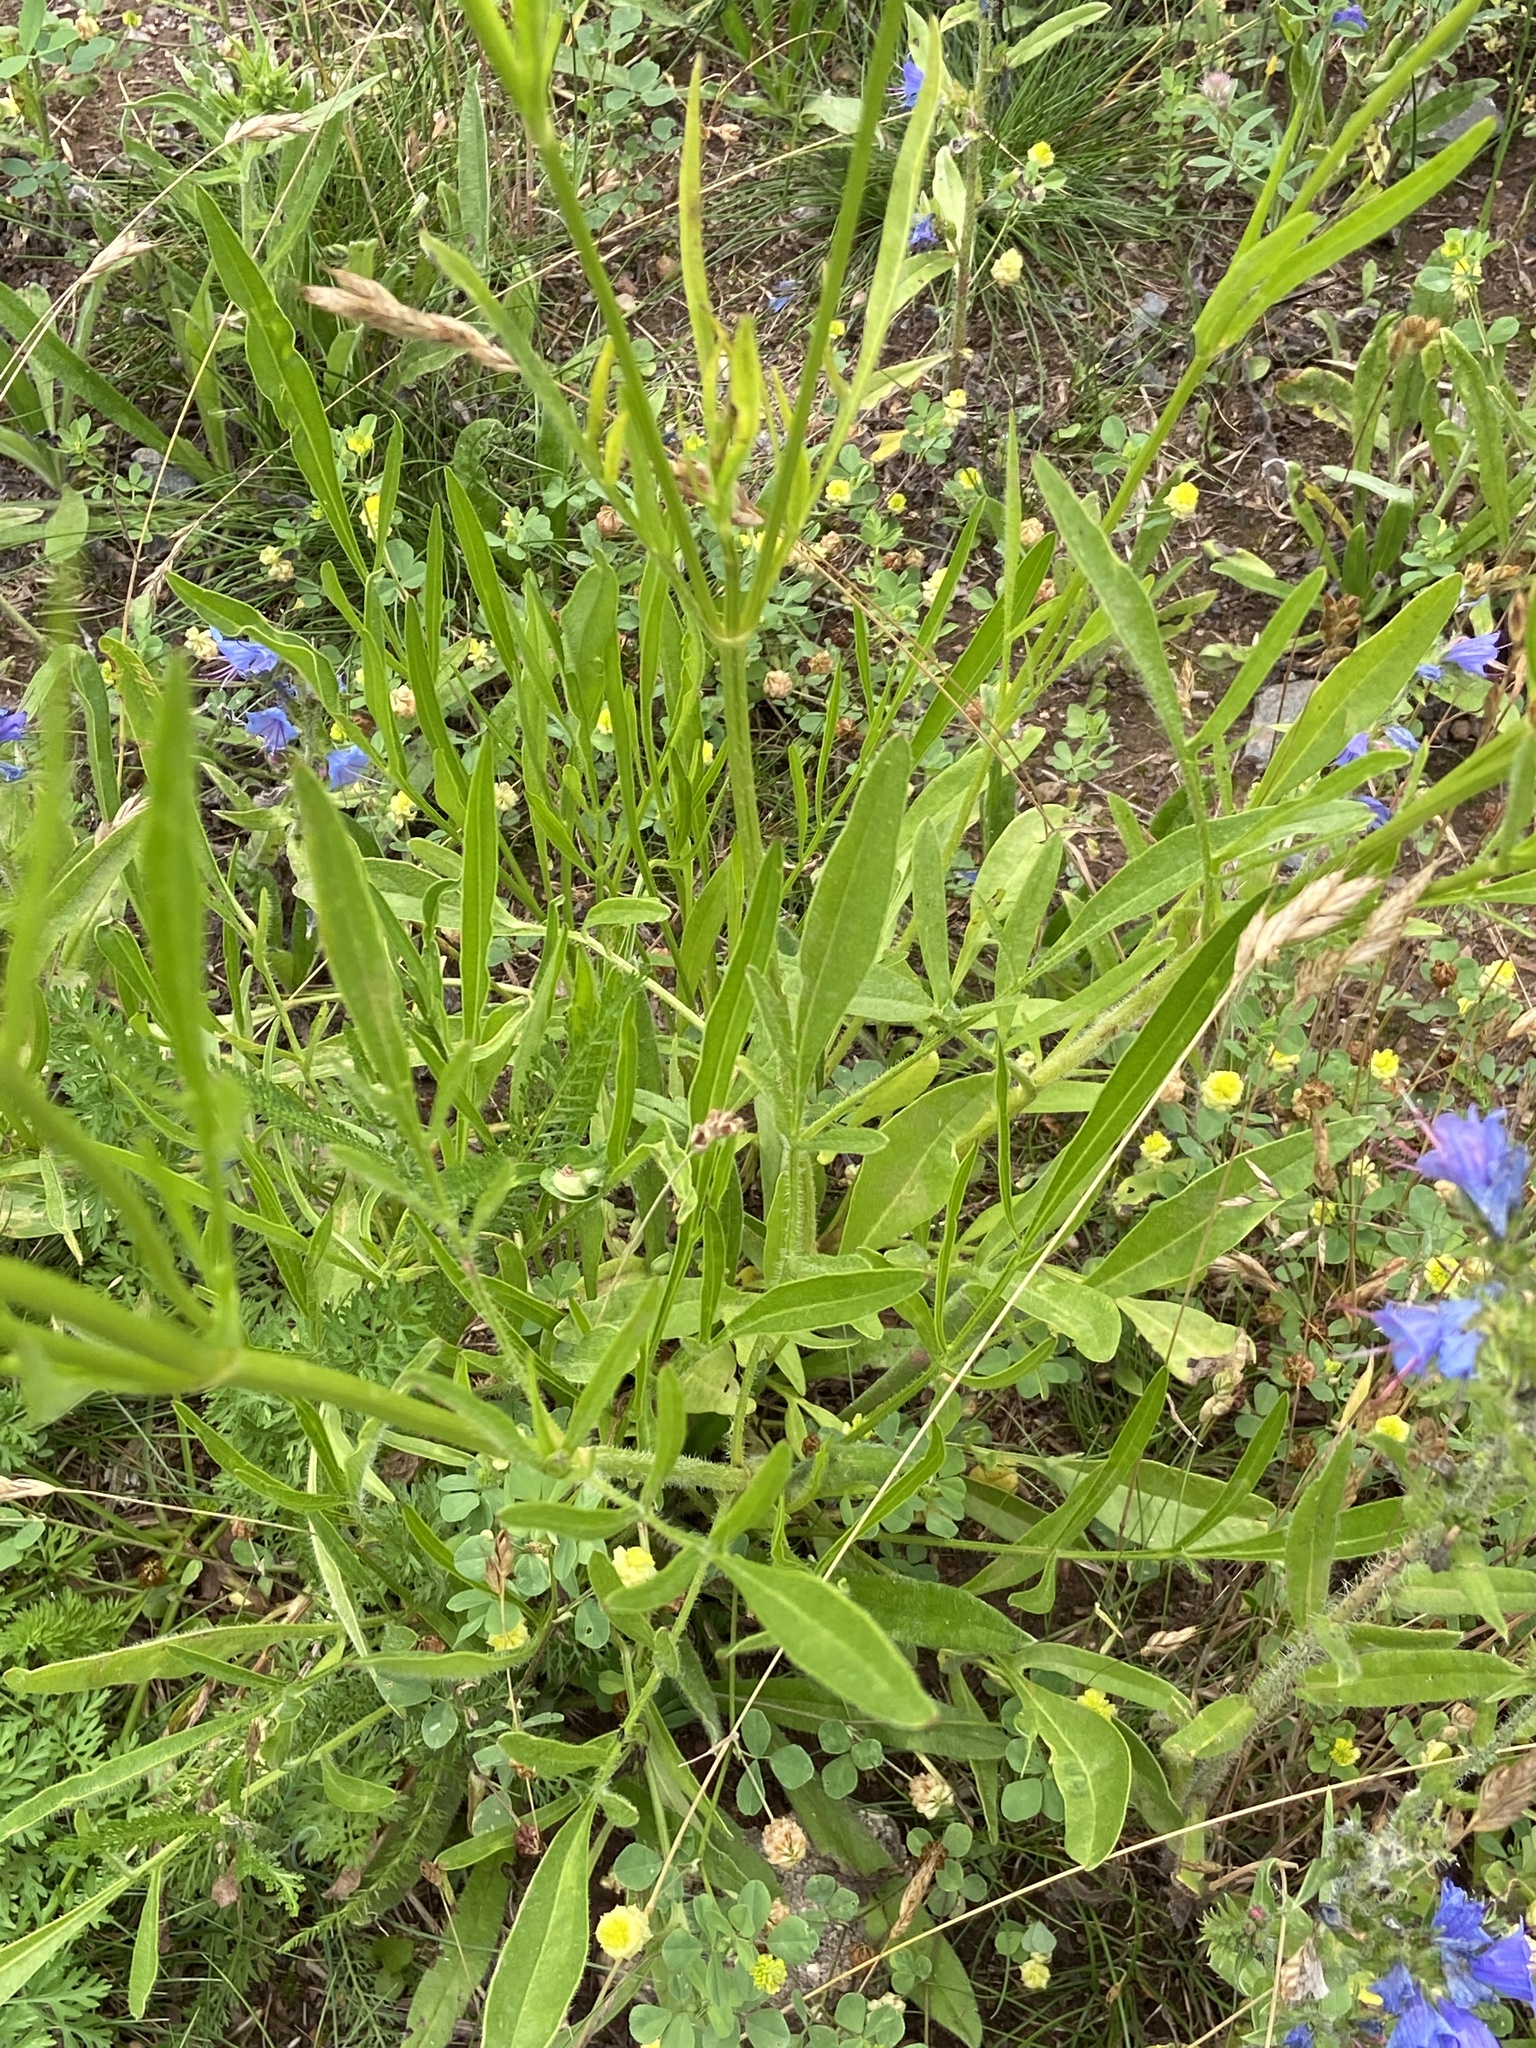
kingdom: Plantae
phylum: Tracheophyta
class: Magnoliopsida
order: Asterales
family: Asteraceae
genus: Coreopsis
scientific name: Coreopsis lanceolata
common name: Garden coreopsis
